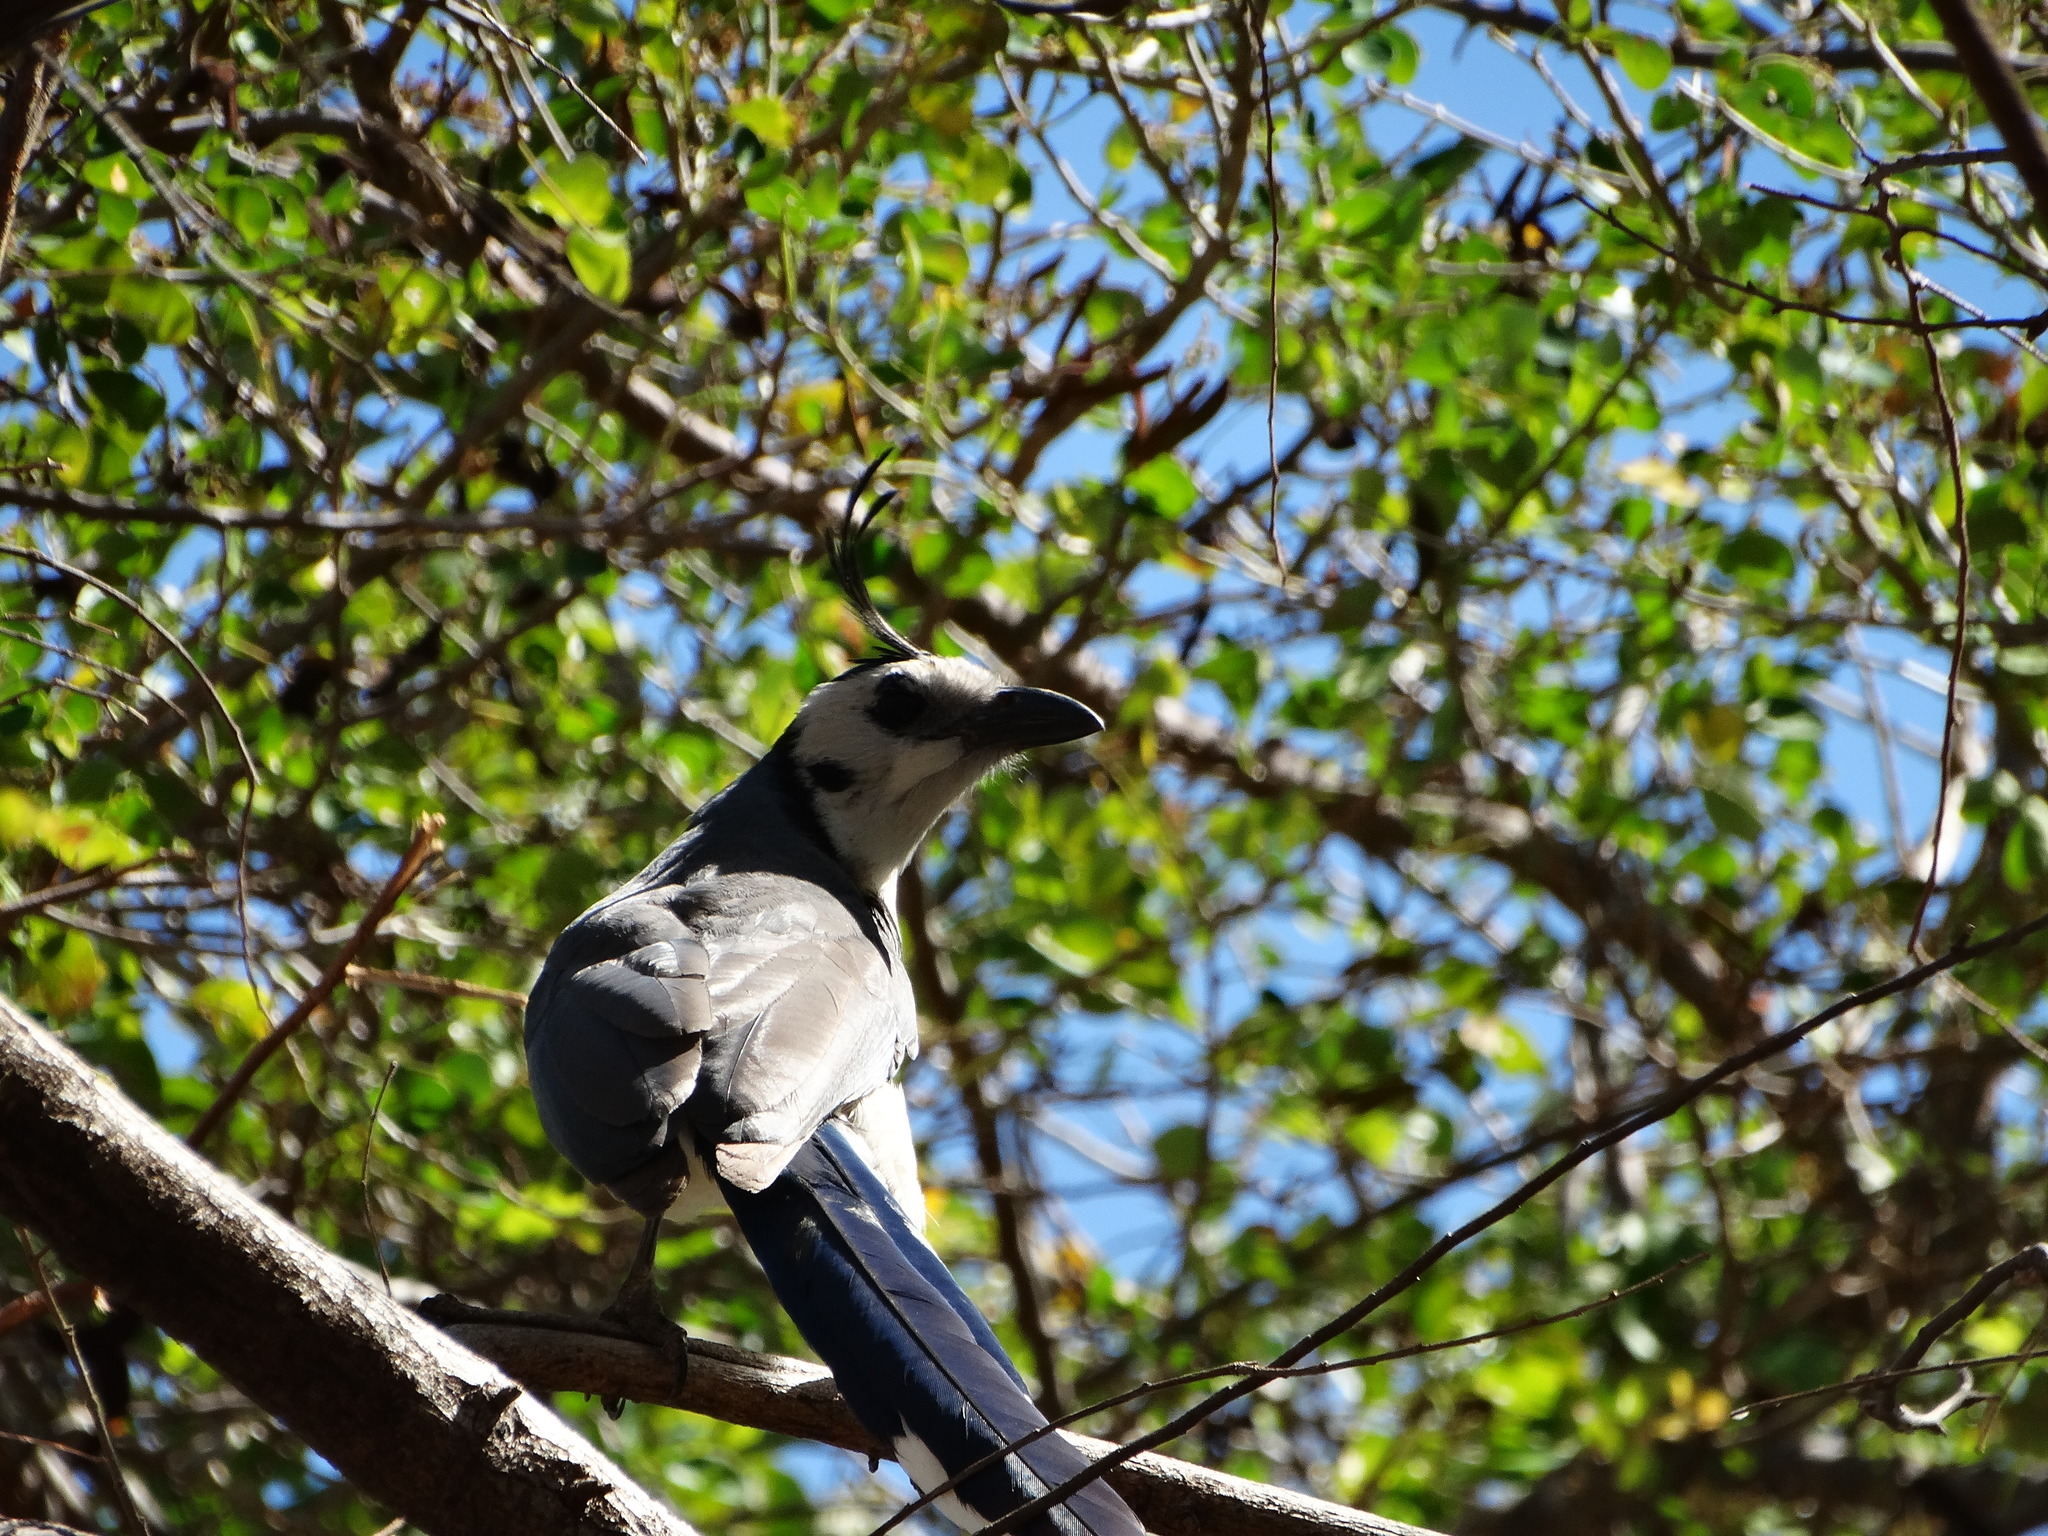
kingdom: Animalia
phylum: Chordata
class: Aves
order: Passeriformes
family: Corvidae
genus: Calocitta
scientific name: Calocitta formosa
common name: White-throated magpie-jay
